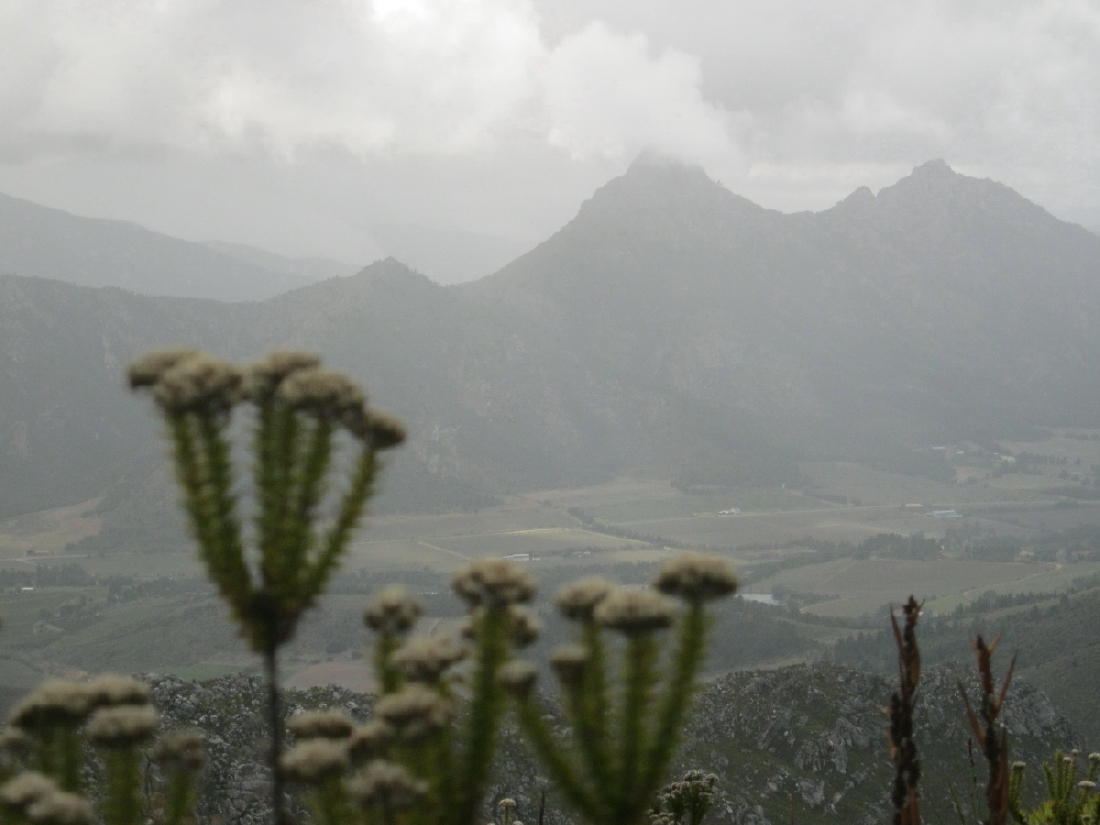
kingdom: Plantae
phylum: Tracheophyta
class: Magnoliopsida
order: Asterales
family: Asteraceae
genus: Metalasia
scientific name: Metalasia acuta
